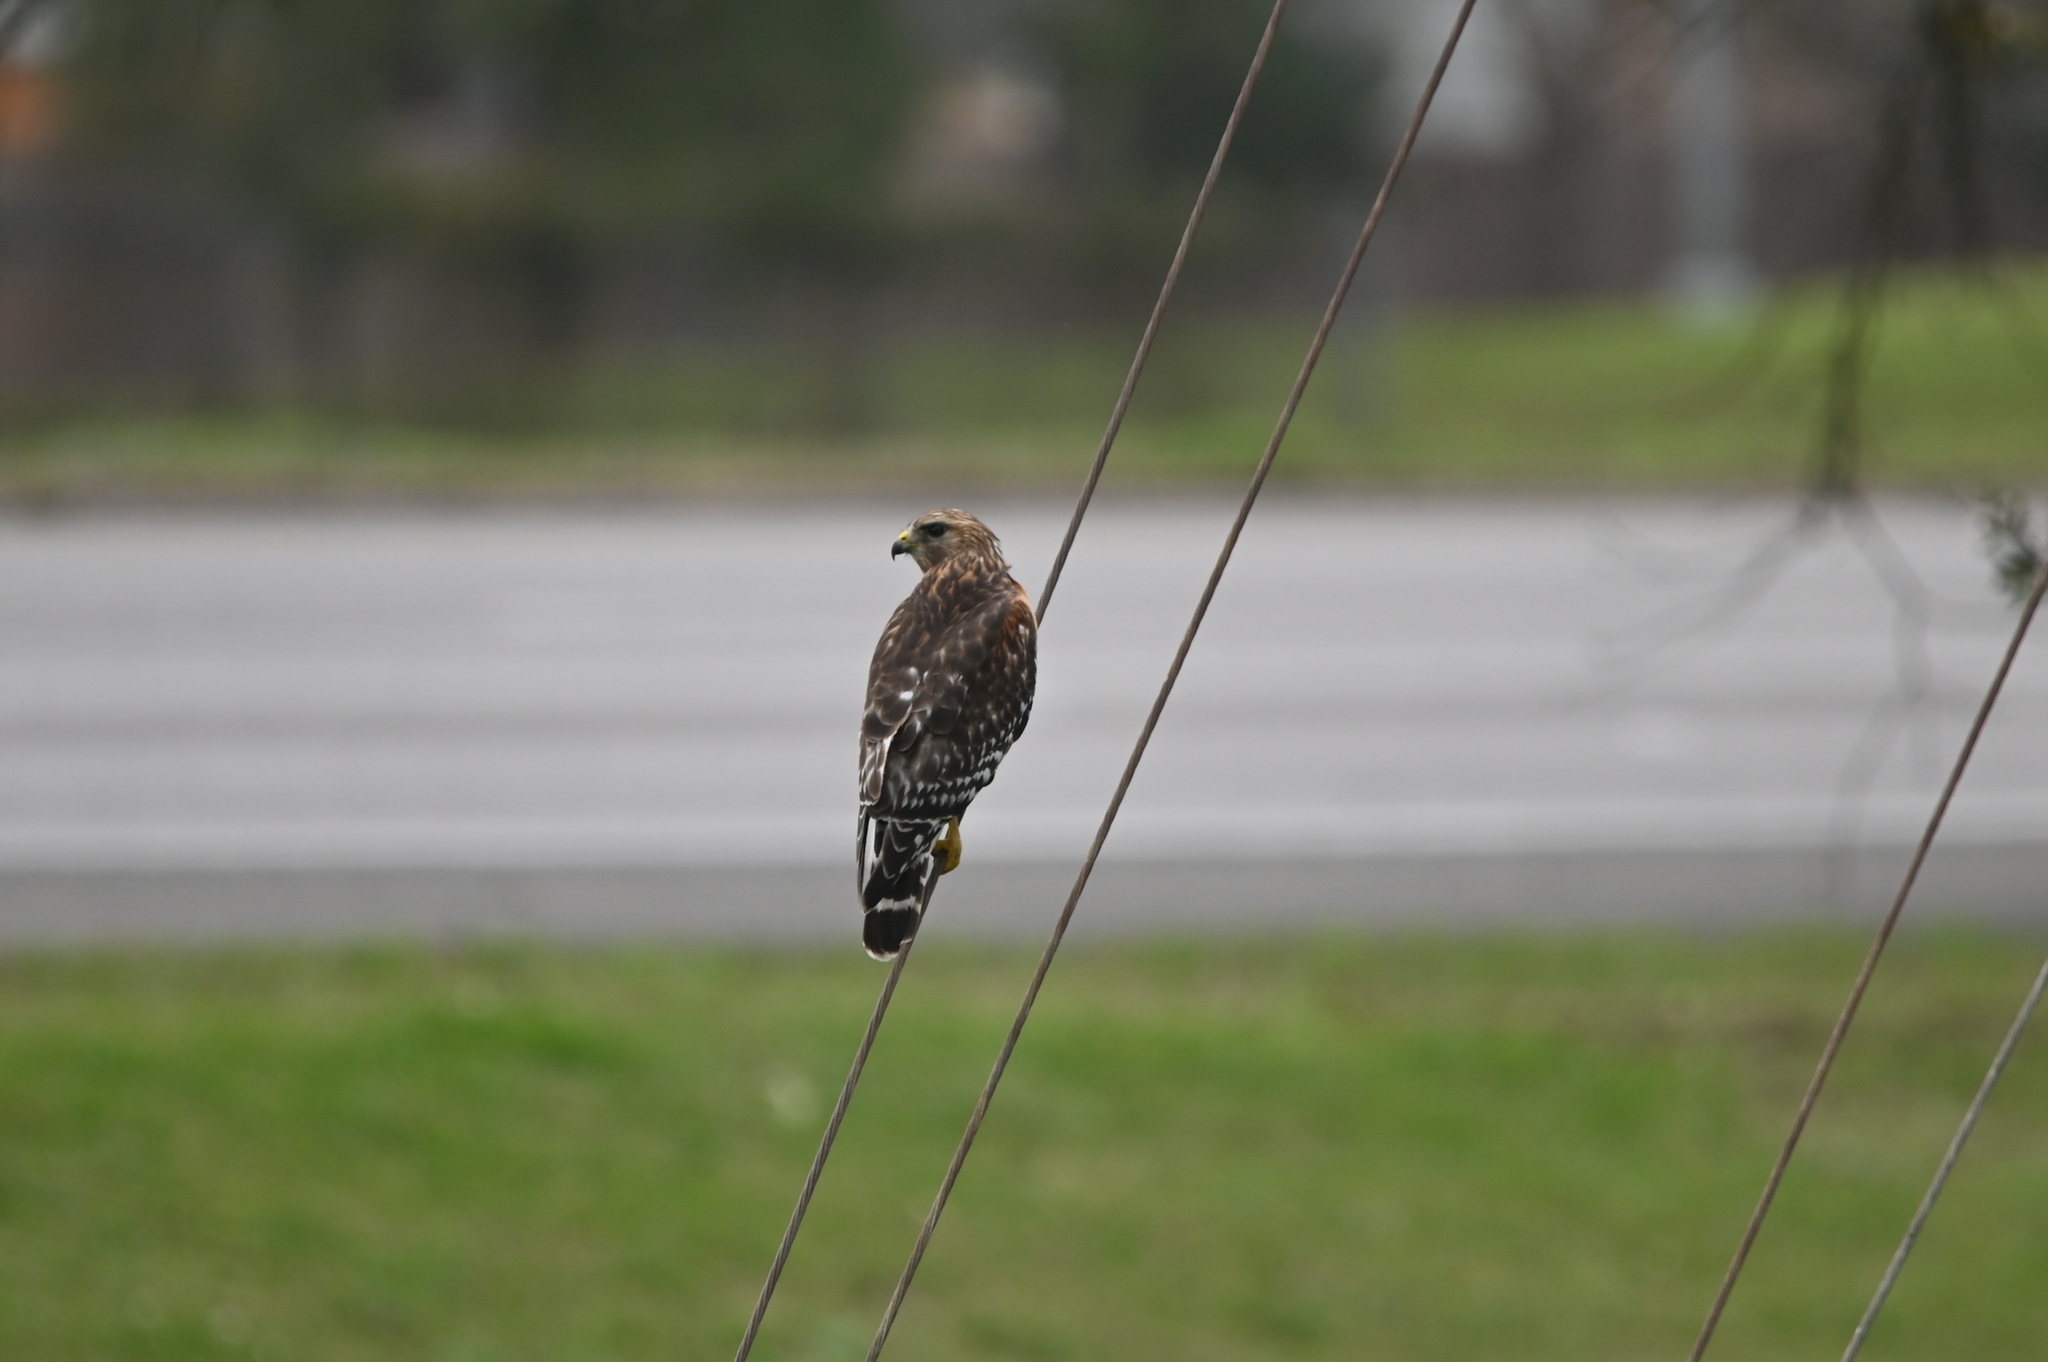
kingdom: Animalia
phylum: Chordata
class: Aves
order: Accipitriformes
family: Accipitridae
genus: Buteo
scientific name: Buteo lineatus
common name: Red-shouldered hawk
